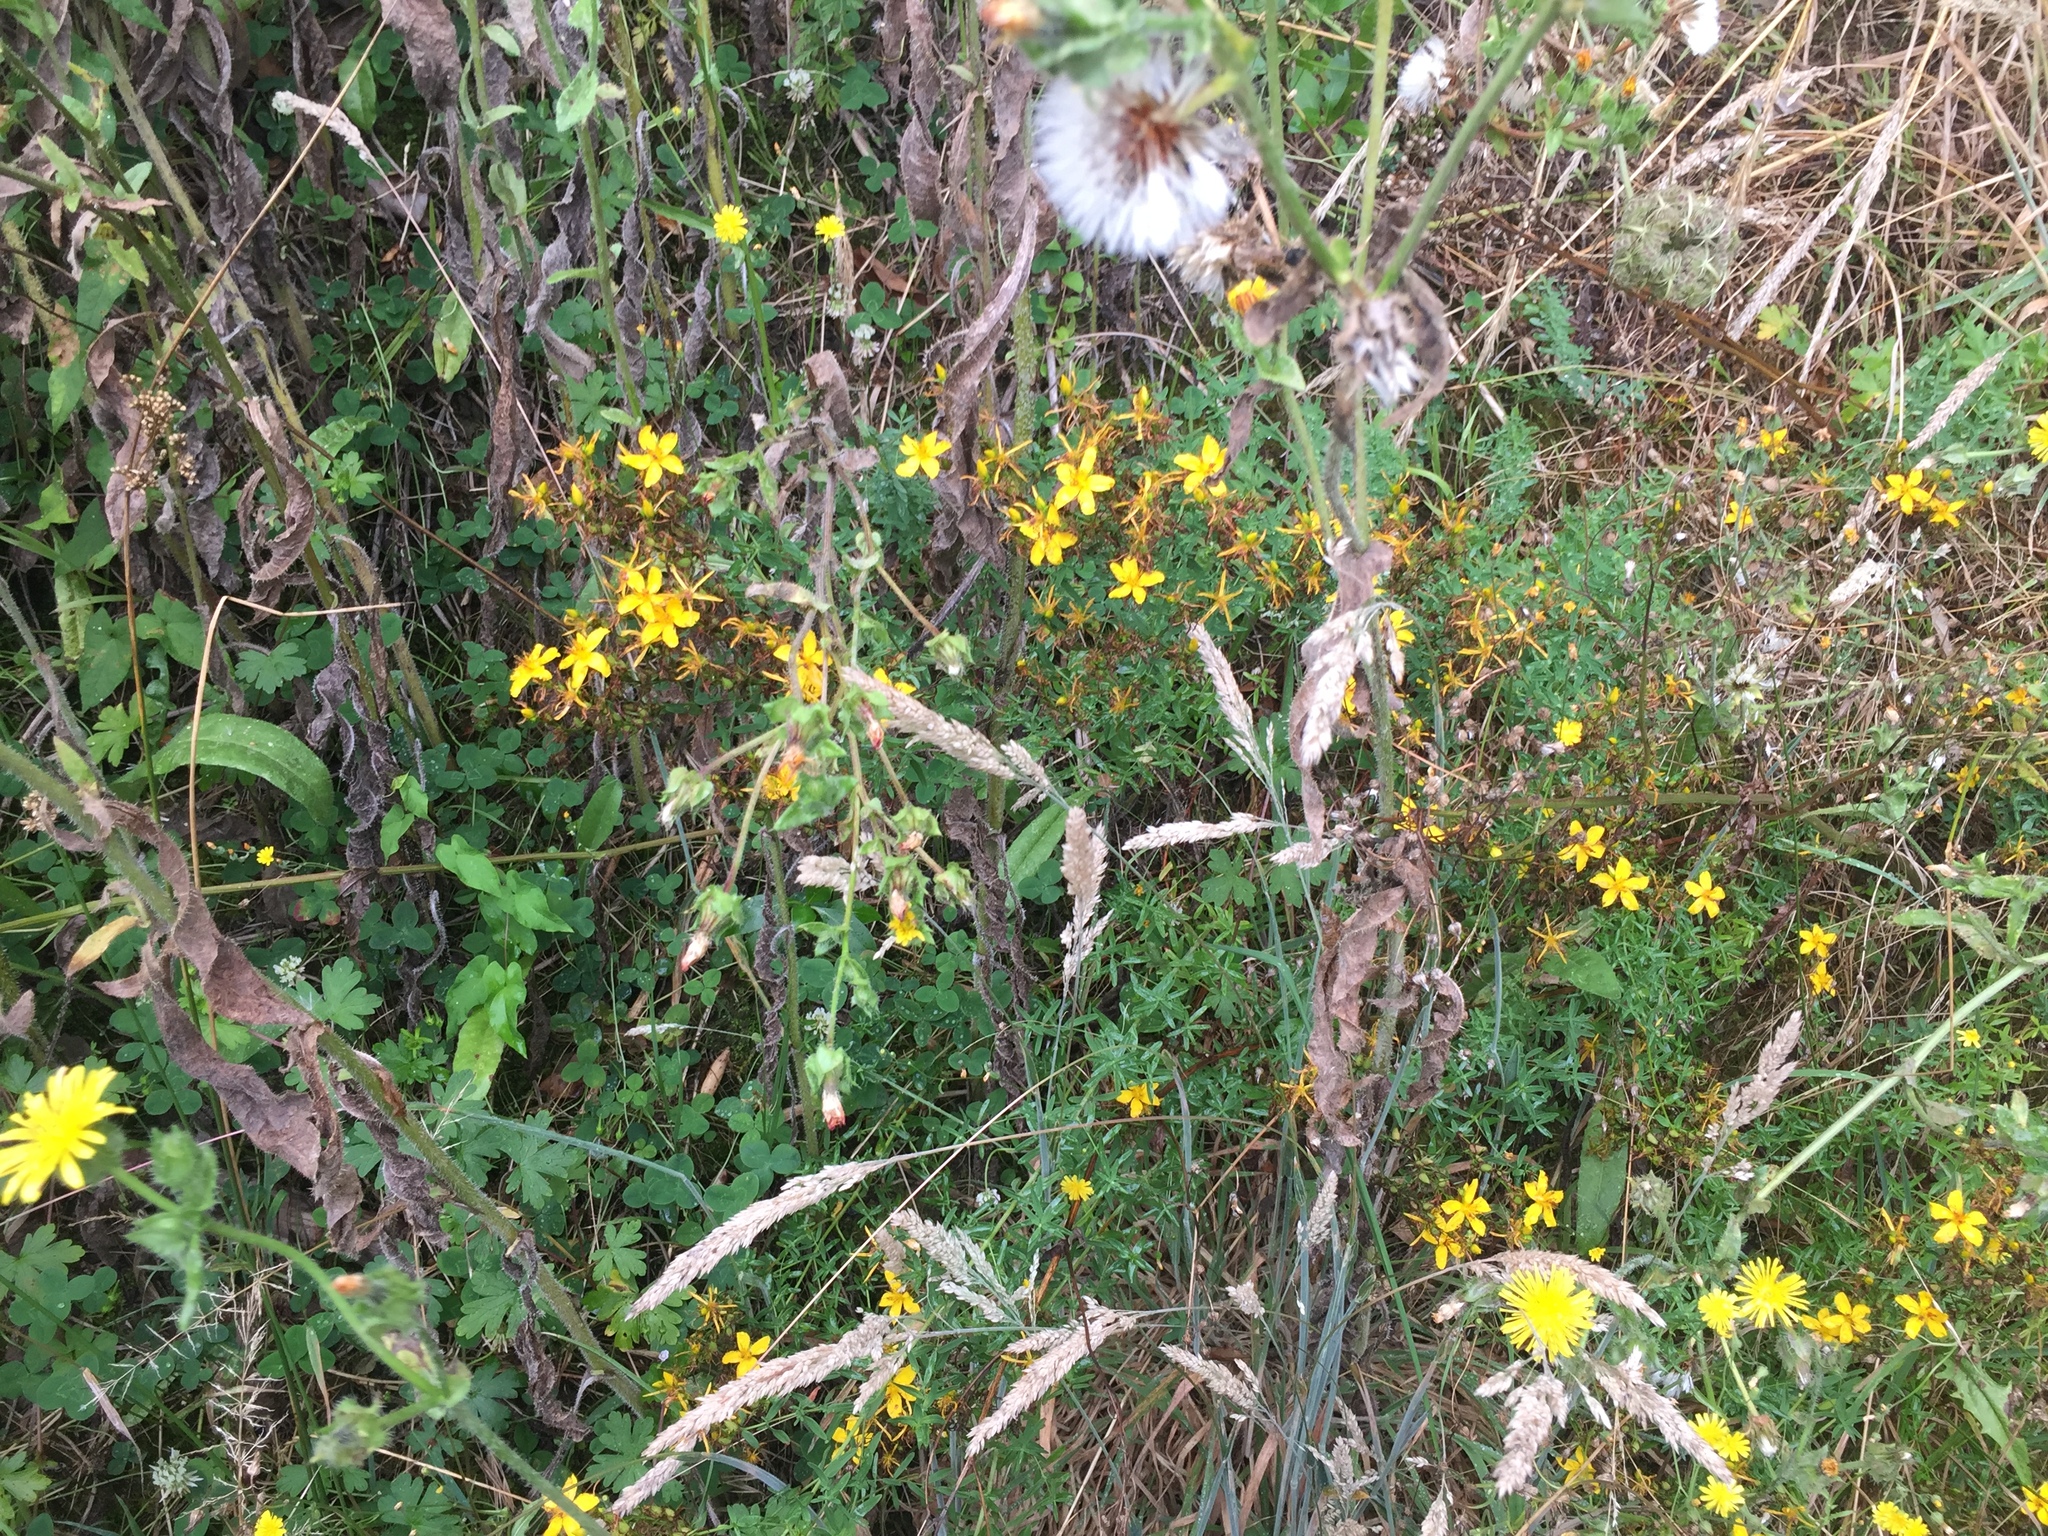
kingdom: Plantae
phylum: Tracheophyta
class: Magnoliopsida
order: Malpighiales
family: Hypericaceae
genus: Hypericum
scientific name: Hypericum perforatum
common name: Common st. johnswort
